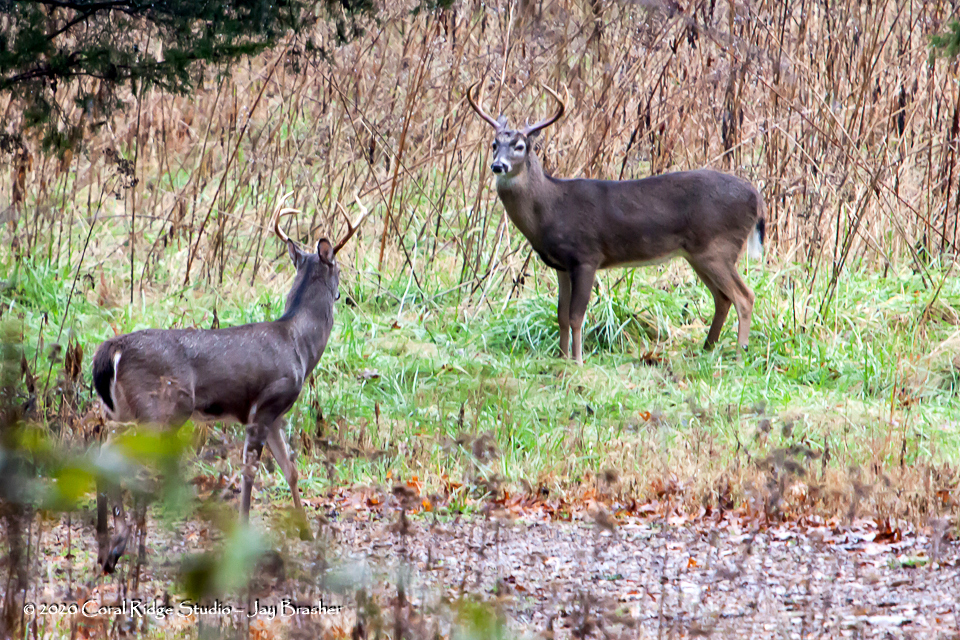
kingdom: Animalia
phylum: Chordata
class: Mammalia
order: Artiodactyla
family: Cervidae
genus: Odocoileus
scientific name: Odocoileus virginianus
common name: White-tailed deer
